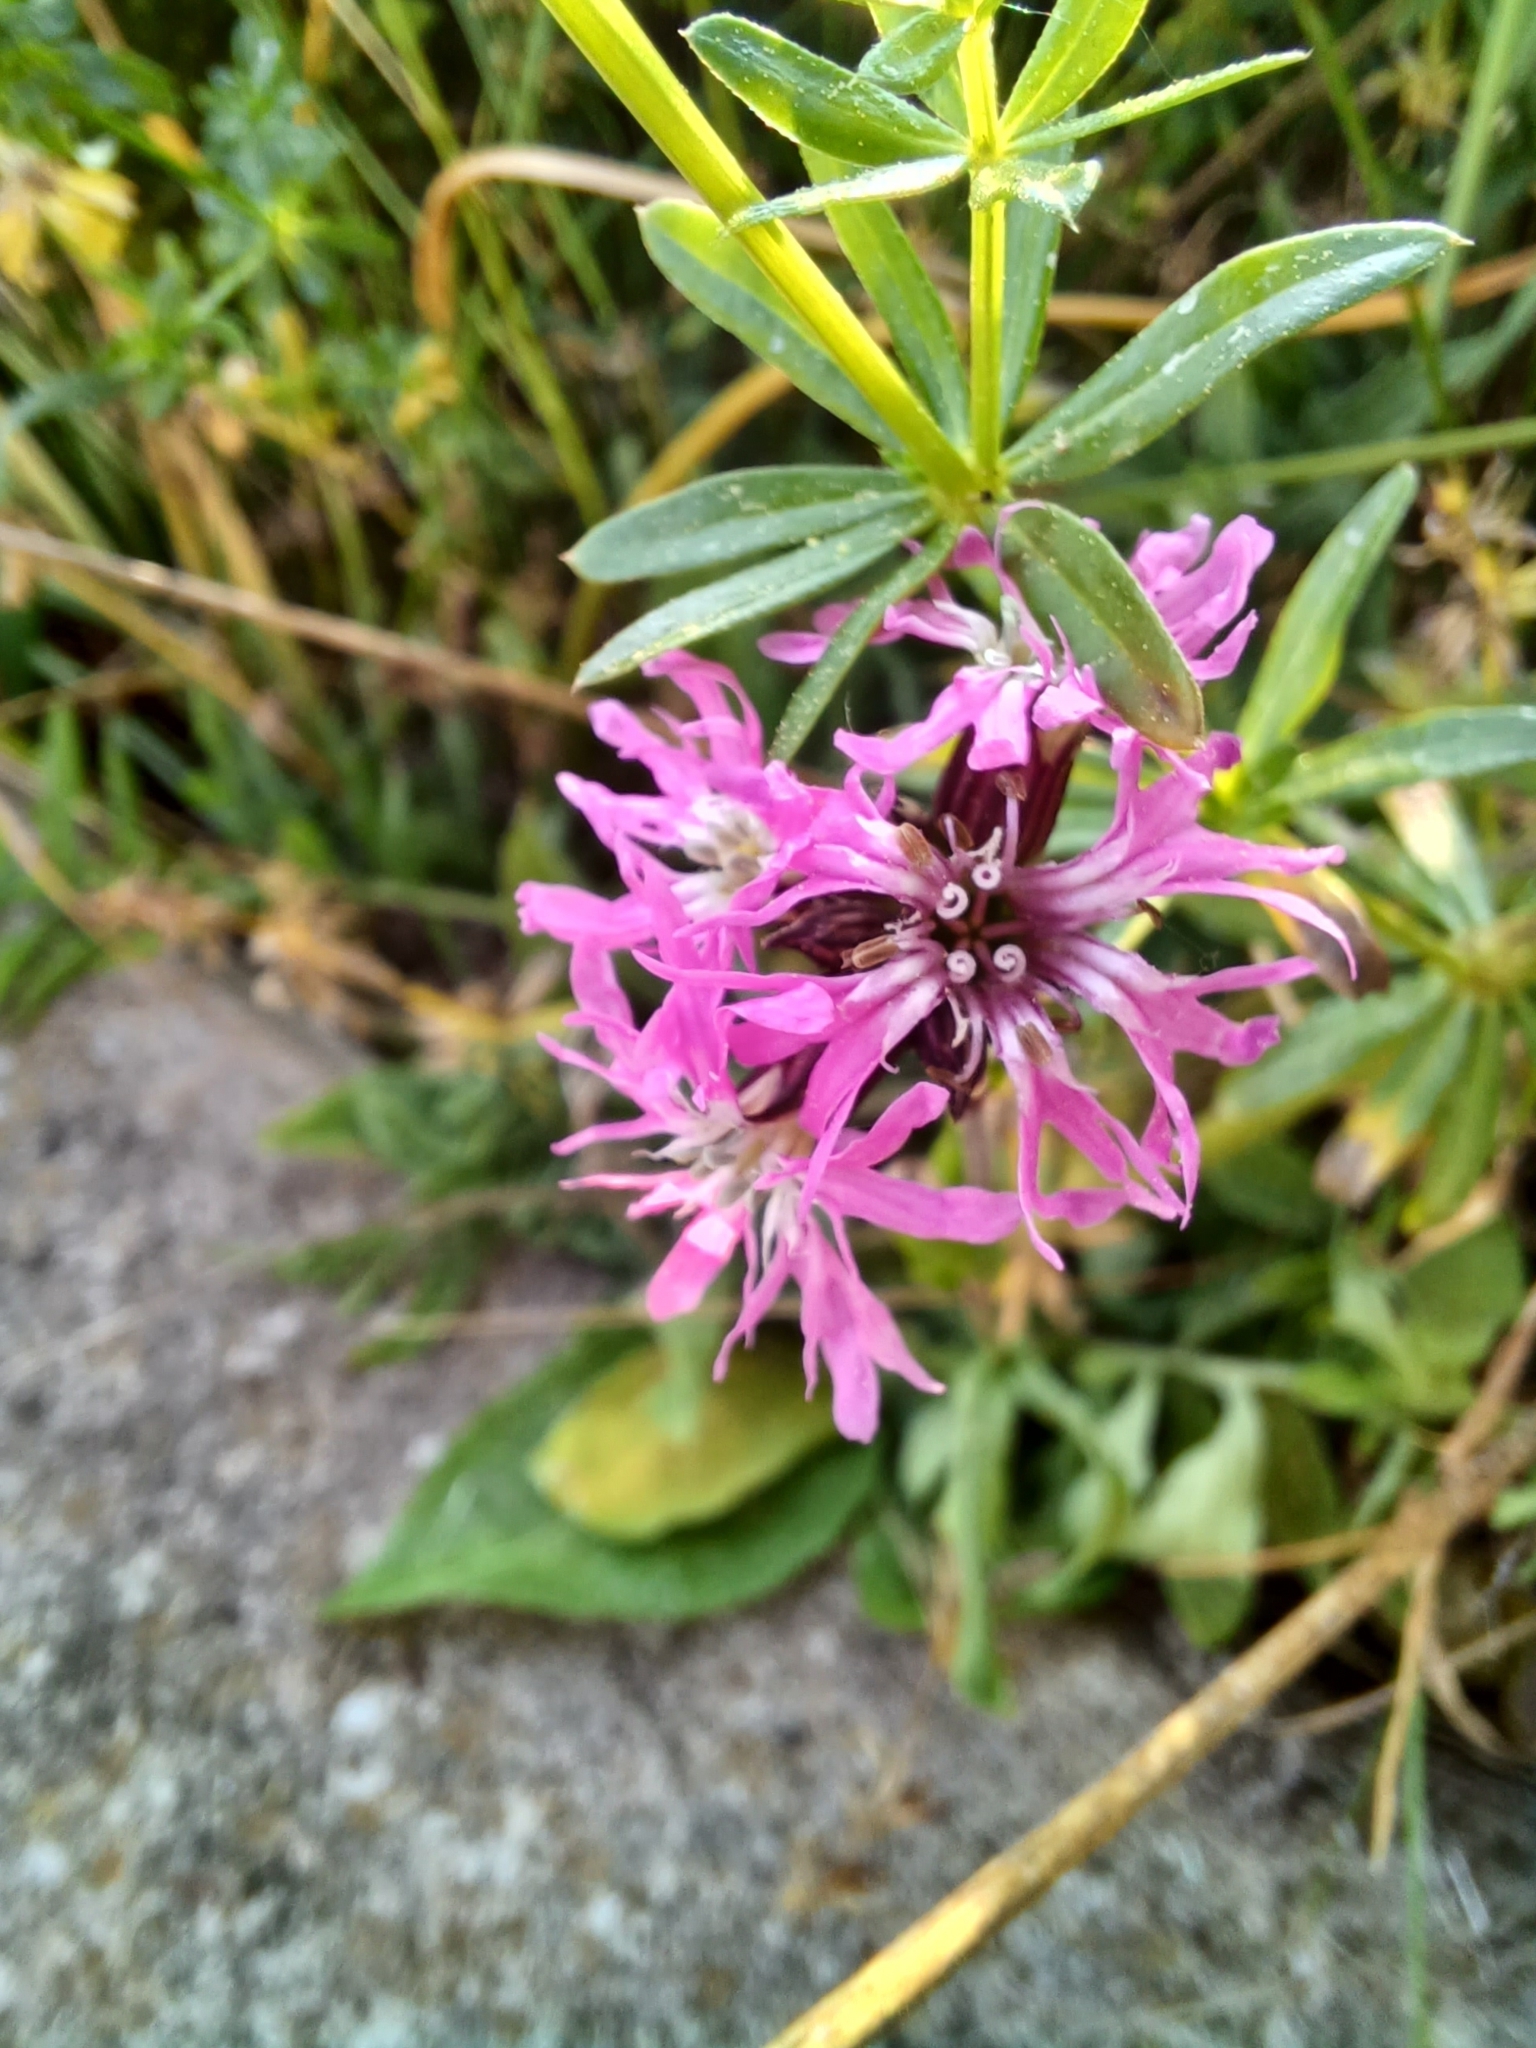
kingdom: Plantae
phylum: Tracheophyta
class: Magnoliopsida
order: Caryophyllales
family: Caryophyllaceae
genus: Silene
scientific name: Silene flos-cuculi
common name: Ragged-robin
